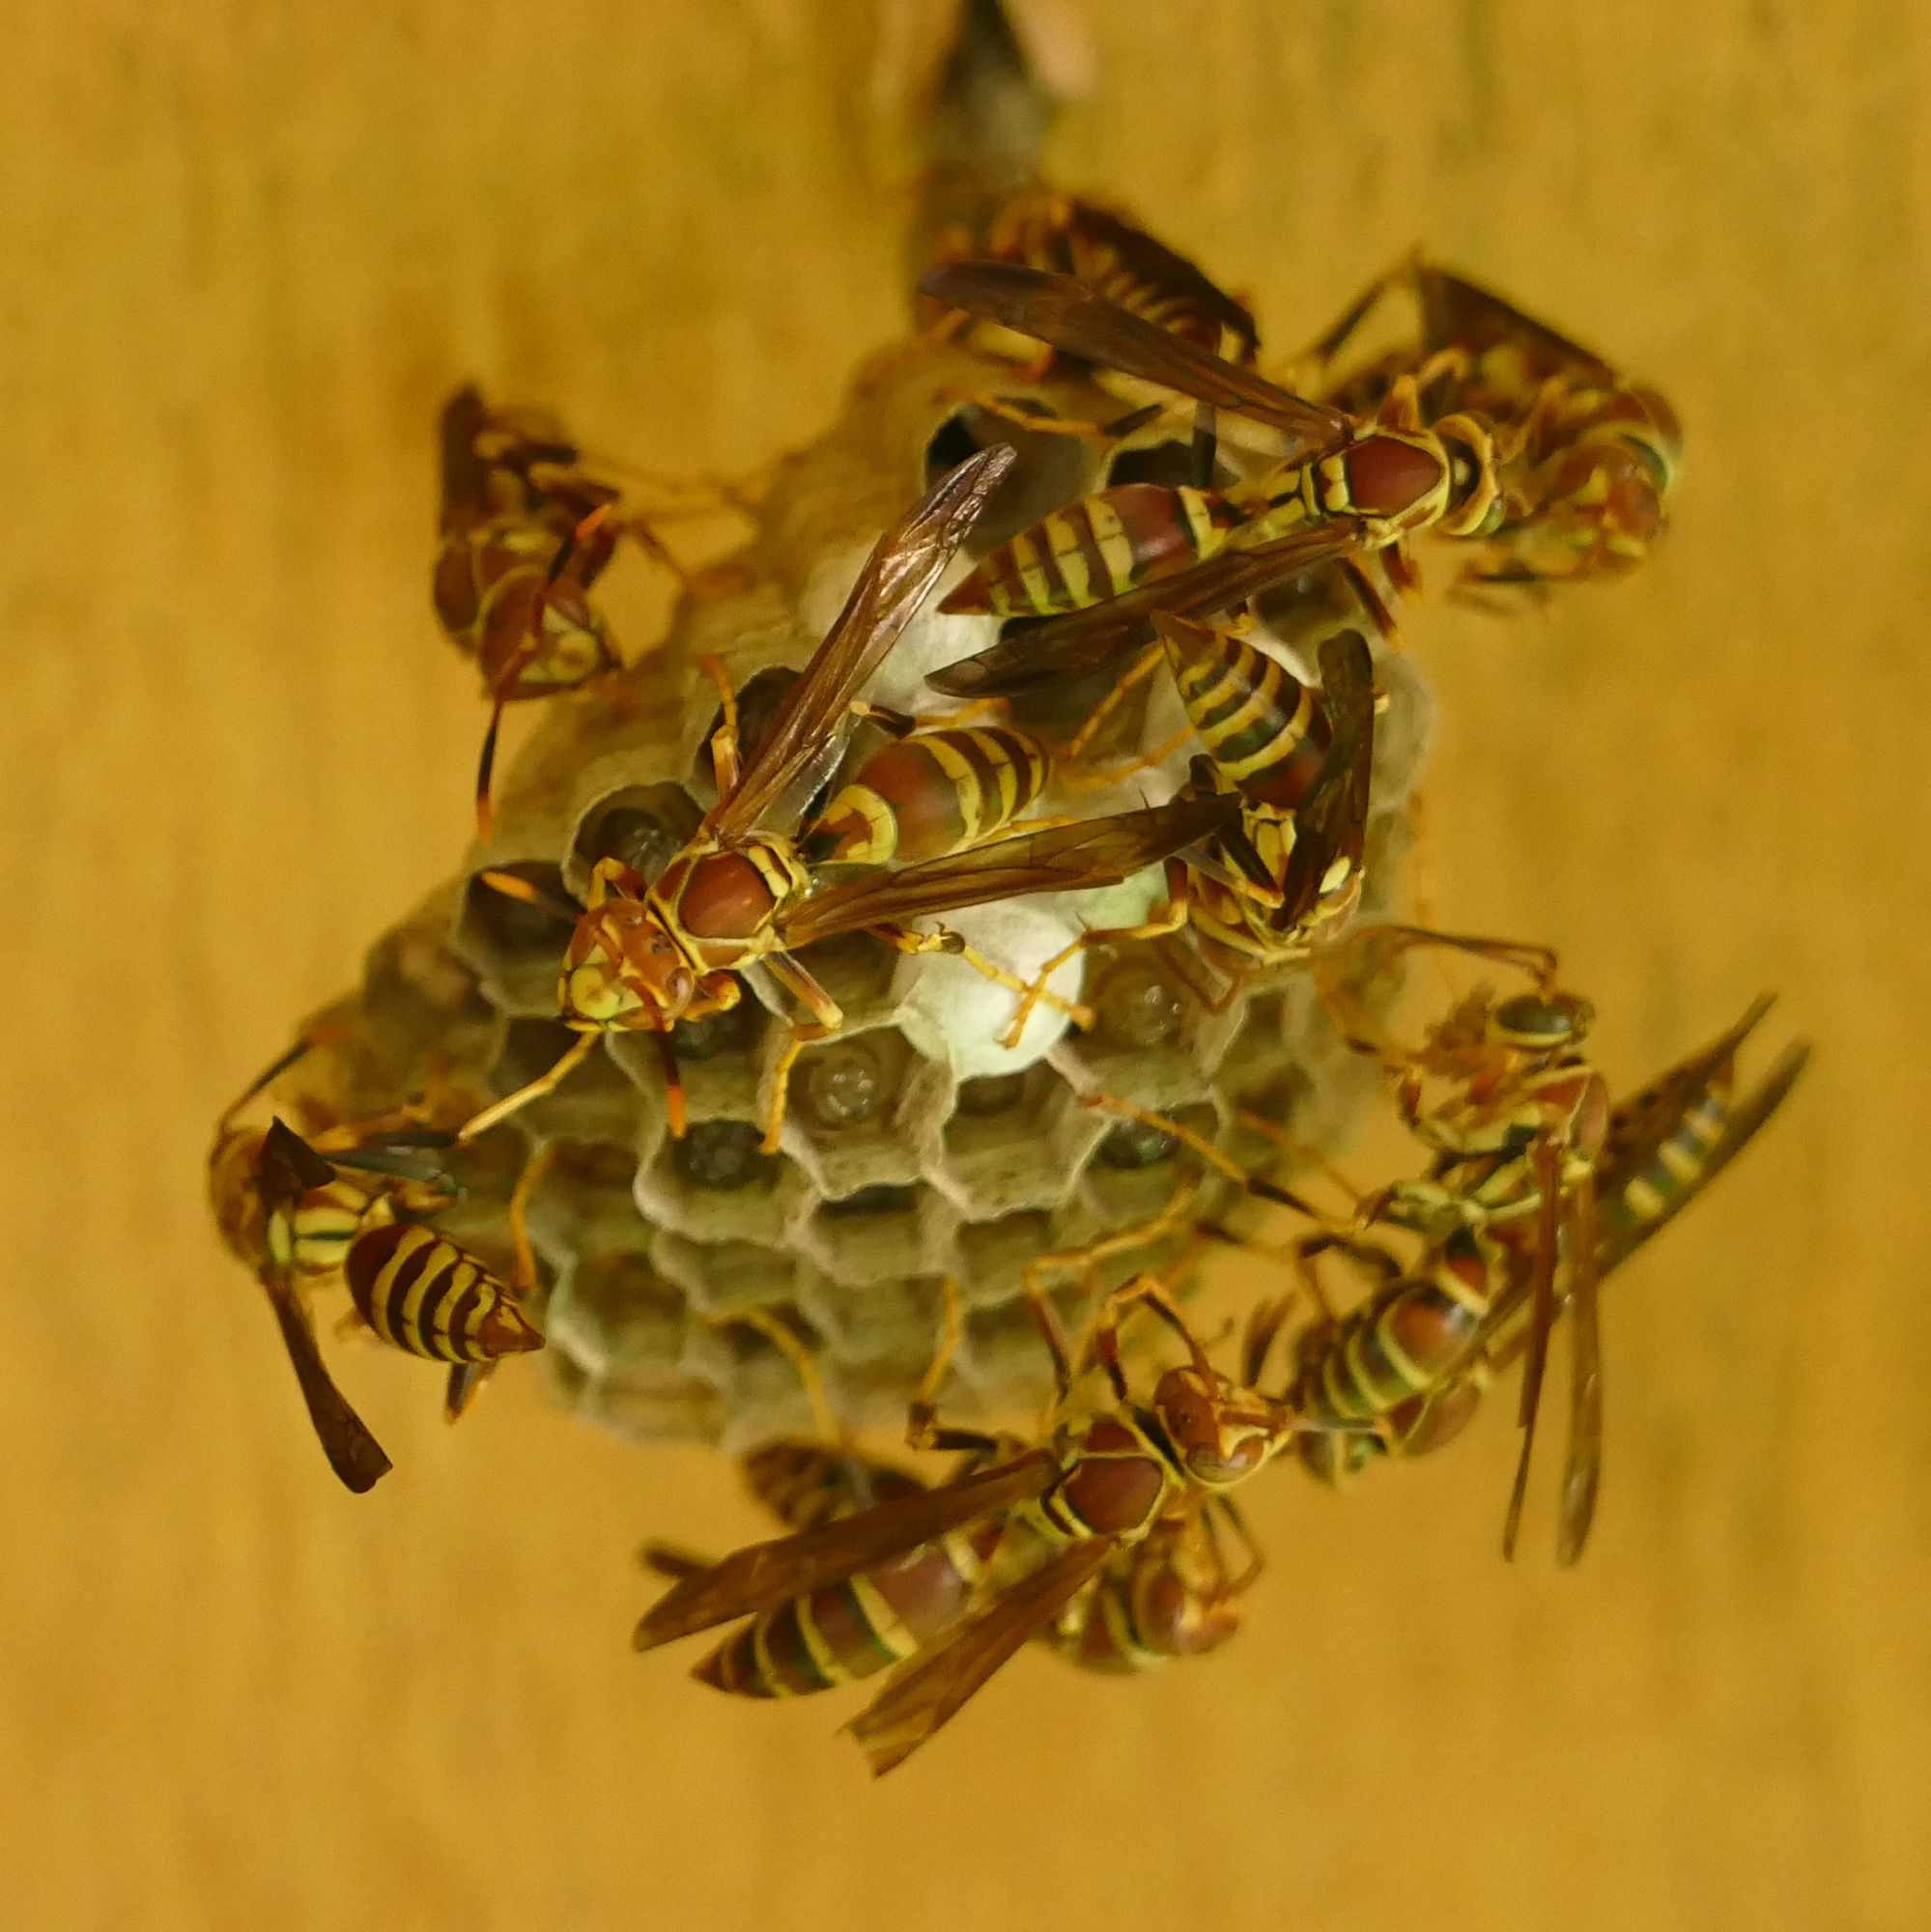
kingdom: Animalia
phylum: Arthropoda
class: Insecta
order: Hymenoptera
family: Eumenidae
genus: Polistes
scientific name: Polistes exclamans
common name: Paper wasp
